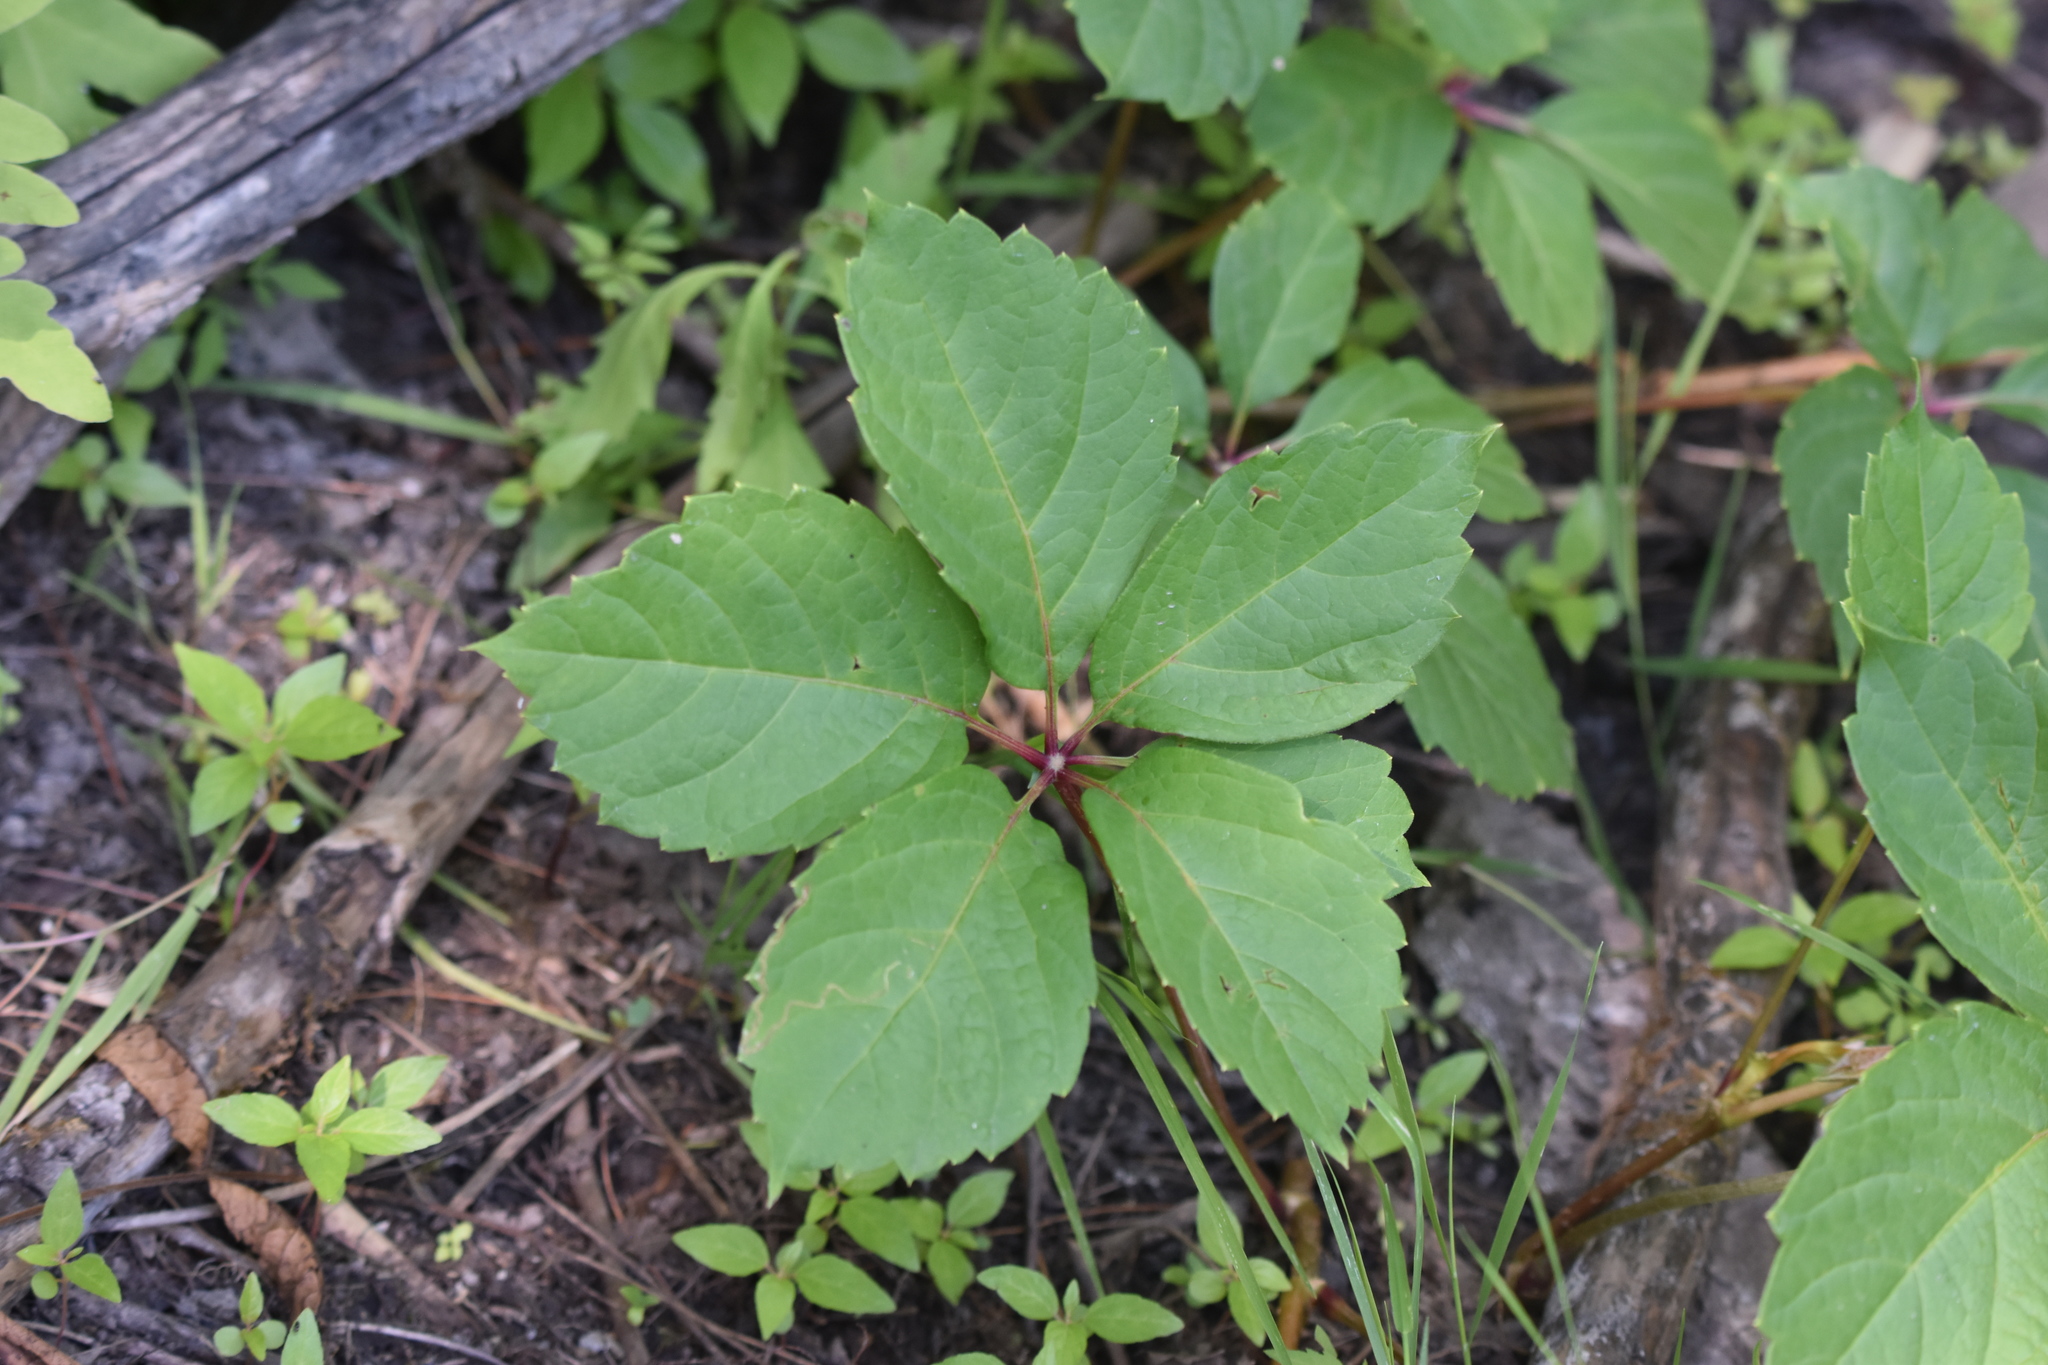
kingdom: Plantae
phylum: Tracheophyta
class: Magnoliopsida
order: Vitales
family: Vitaceae
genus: Parthenocissus
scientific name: Parthenocissus inserta
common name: False virginia-creeper
